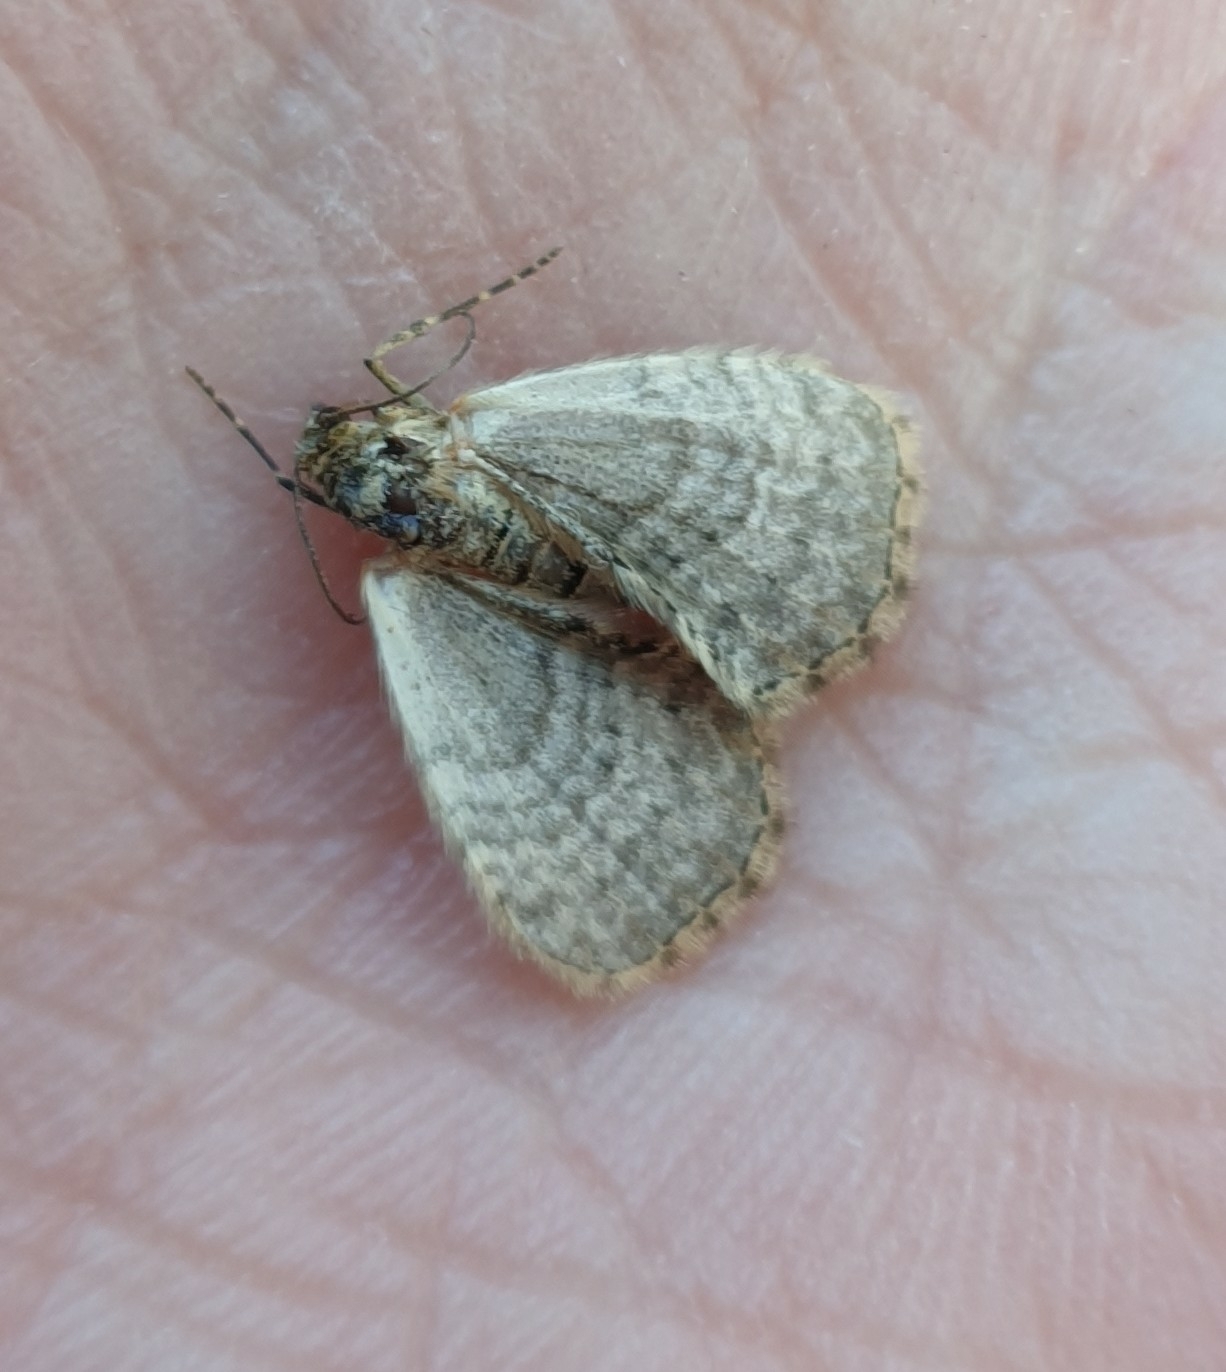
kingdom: Animalia
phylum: Arthropoda
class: Insecta
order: Lepidoptera
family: Geometridae
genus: Xanthorhoe
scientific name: Xanthorhoe designata
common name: Flame carpet
